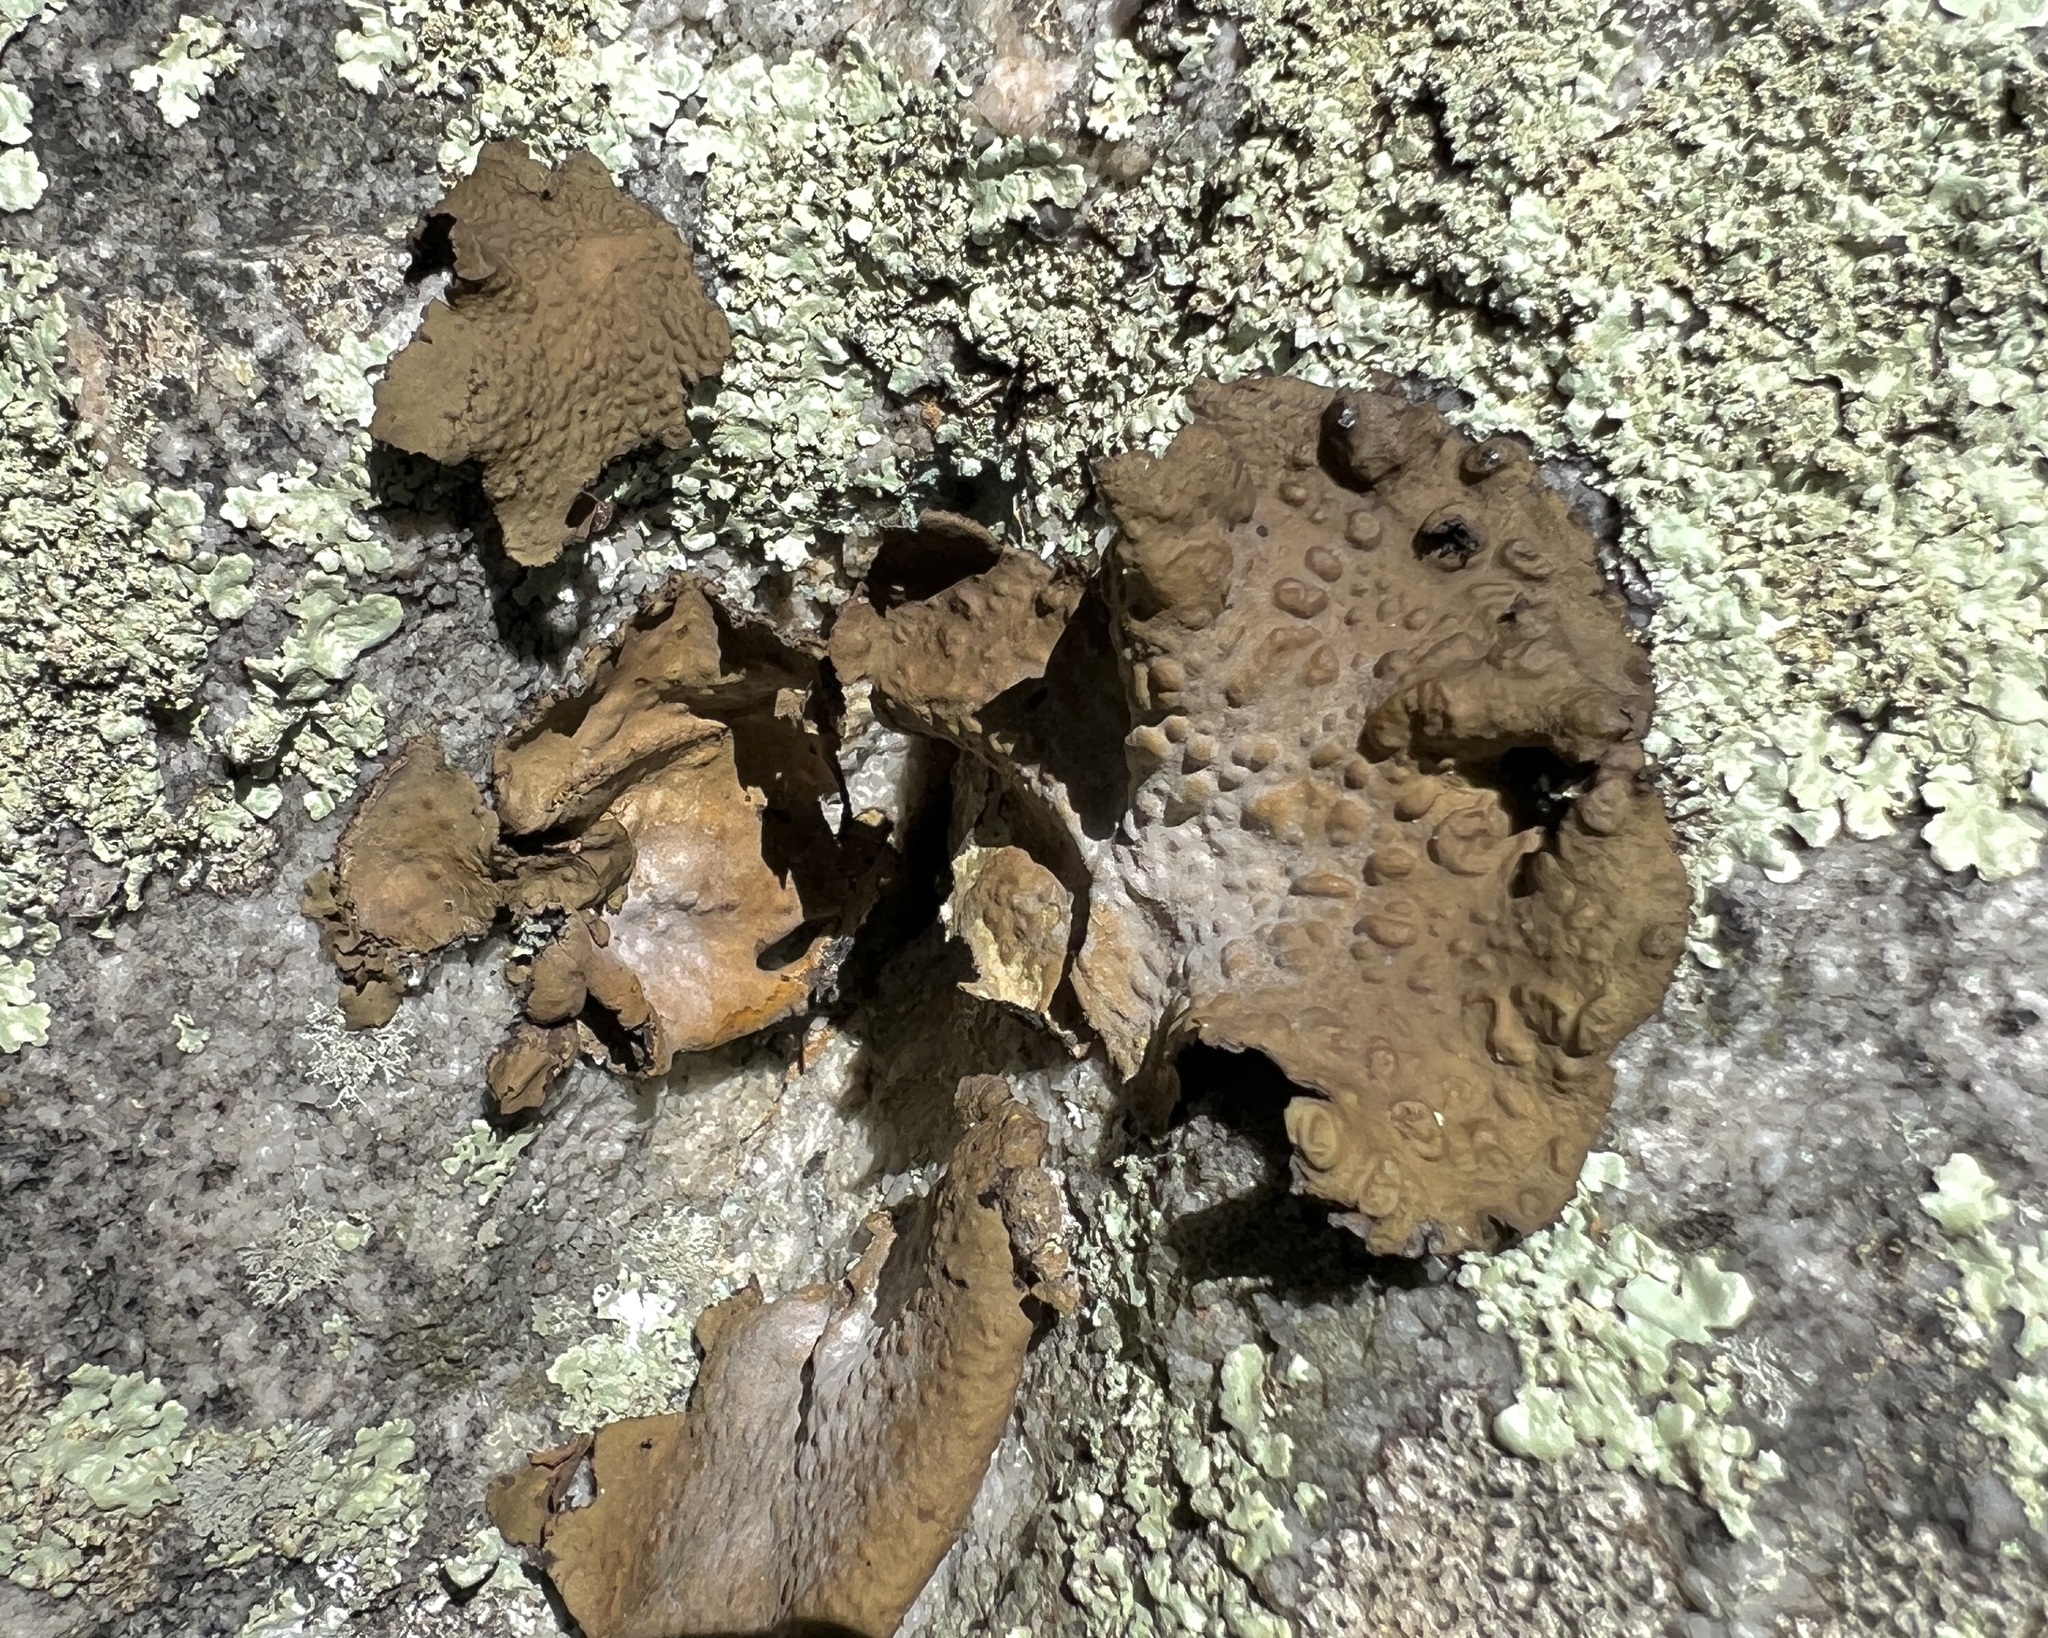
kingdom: Fungi
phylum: Ascomycota
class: Lecanoromycetes
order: Umbilicariales
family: Umbilicariaceae
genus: Lasallia
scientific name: Lasallia pensylvanica
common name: Blackened toadskin lichen
